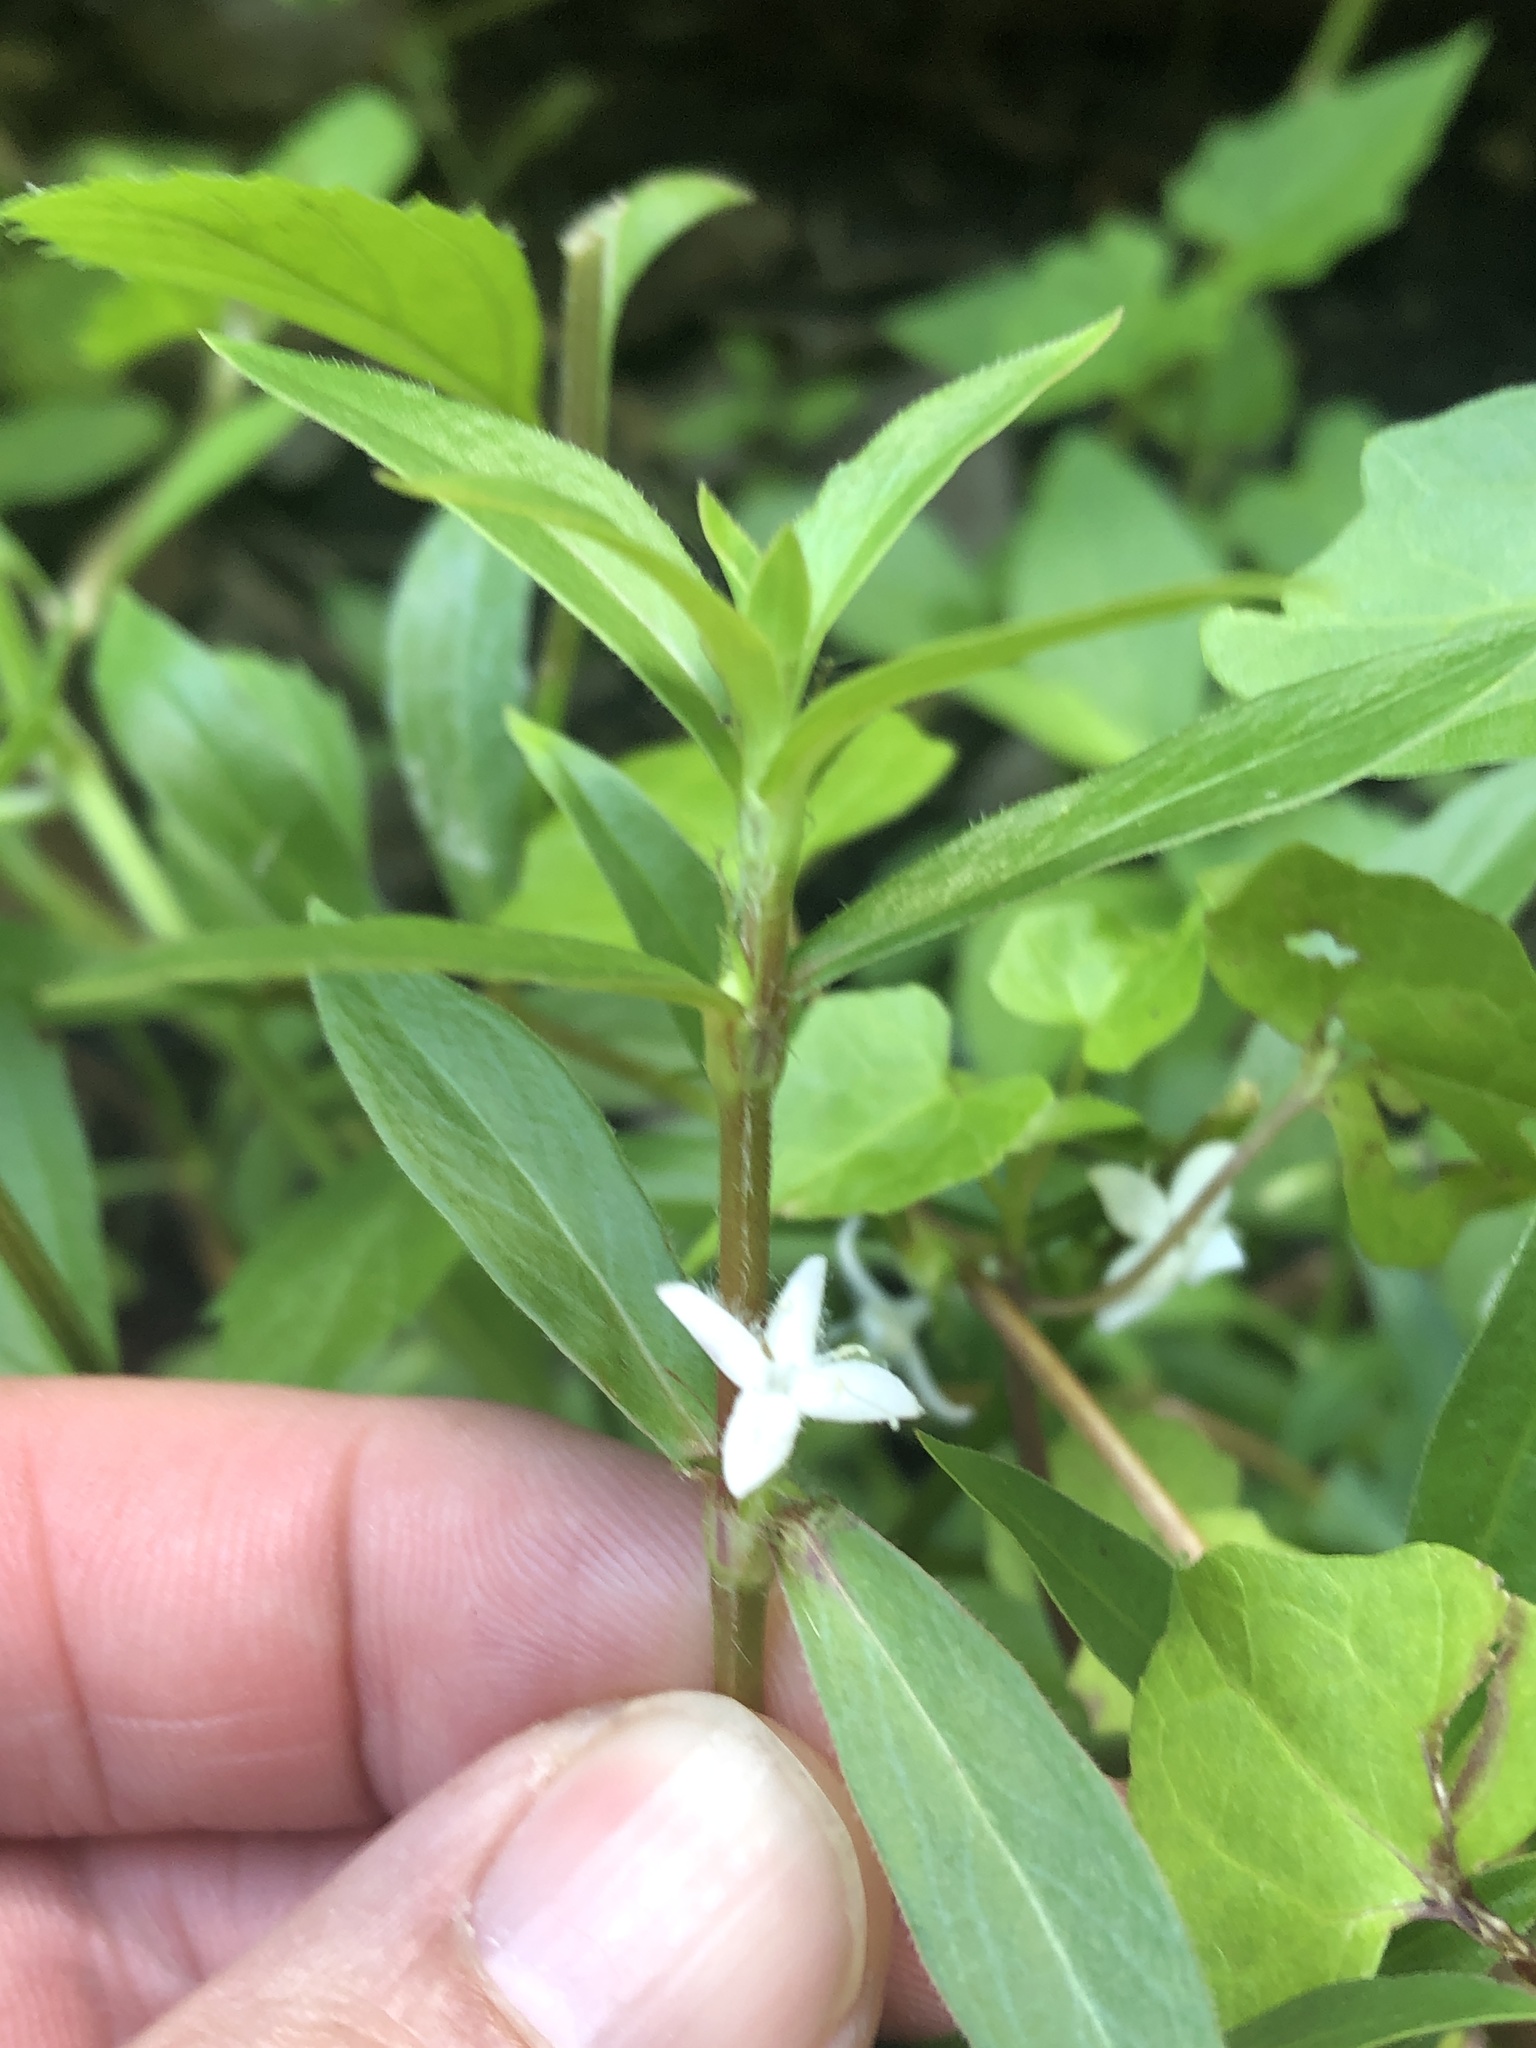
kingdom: Plantae
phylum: Tracheophyta
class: Magnoliopsida
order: Gentianales
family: Rubiaceae
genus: Diodia
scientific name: Diodia virginiana
